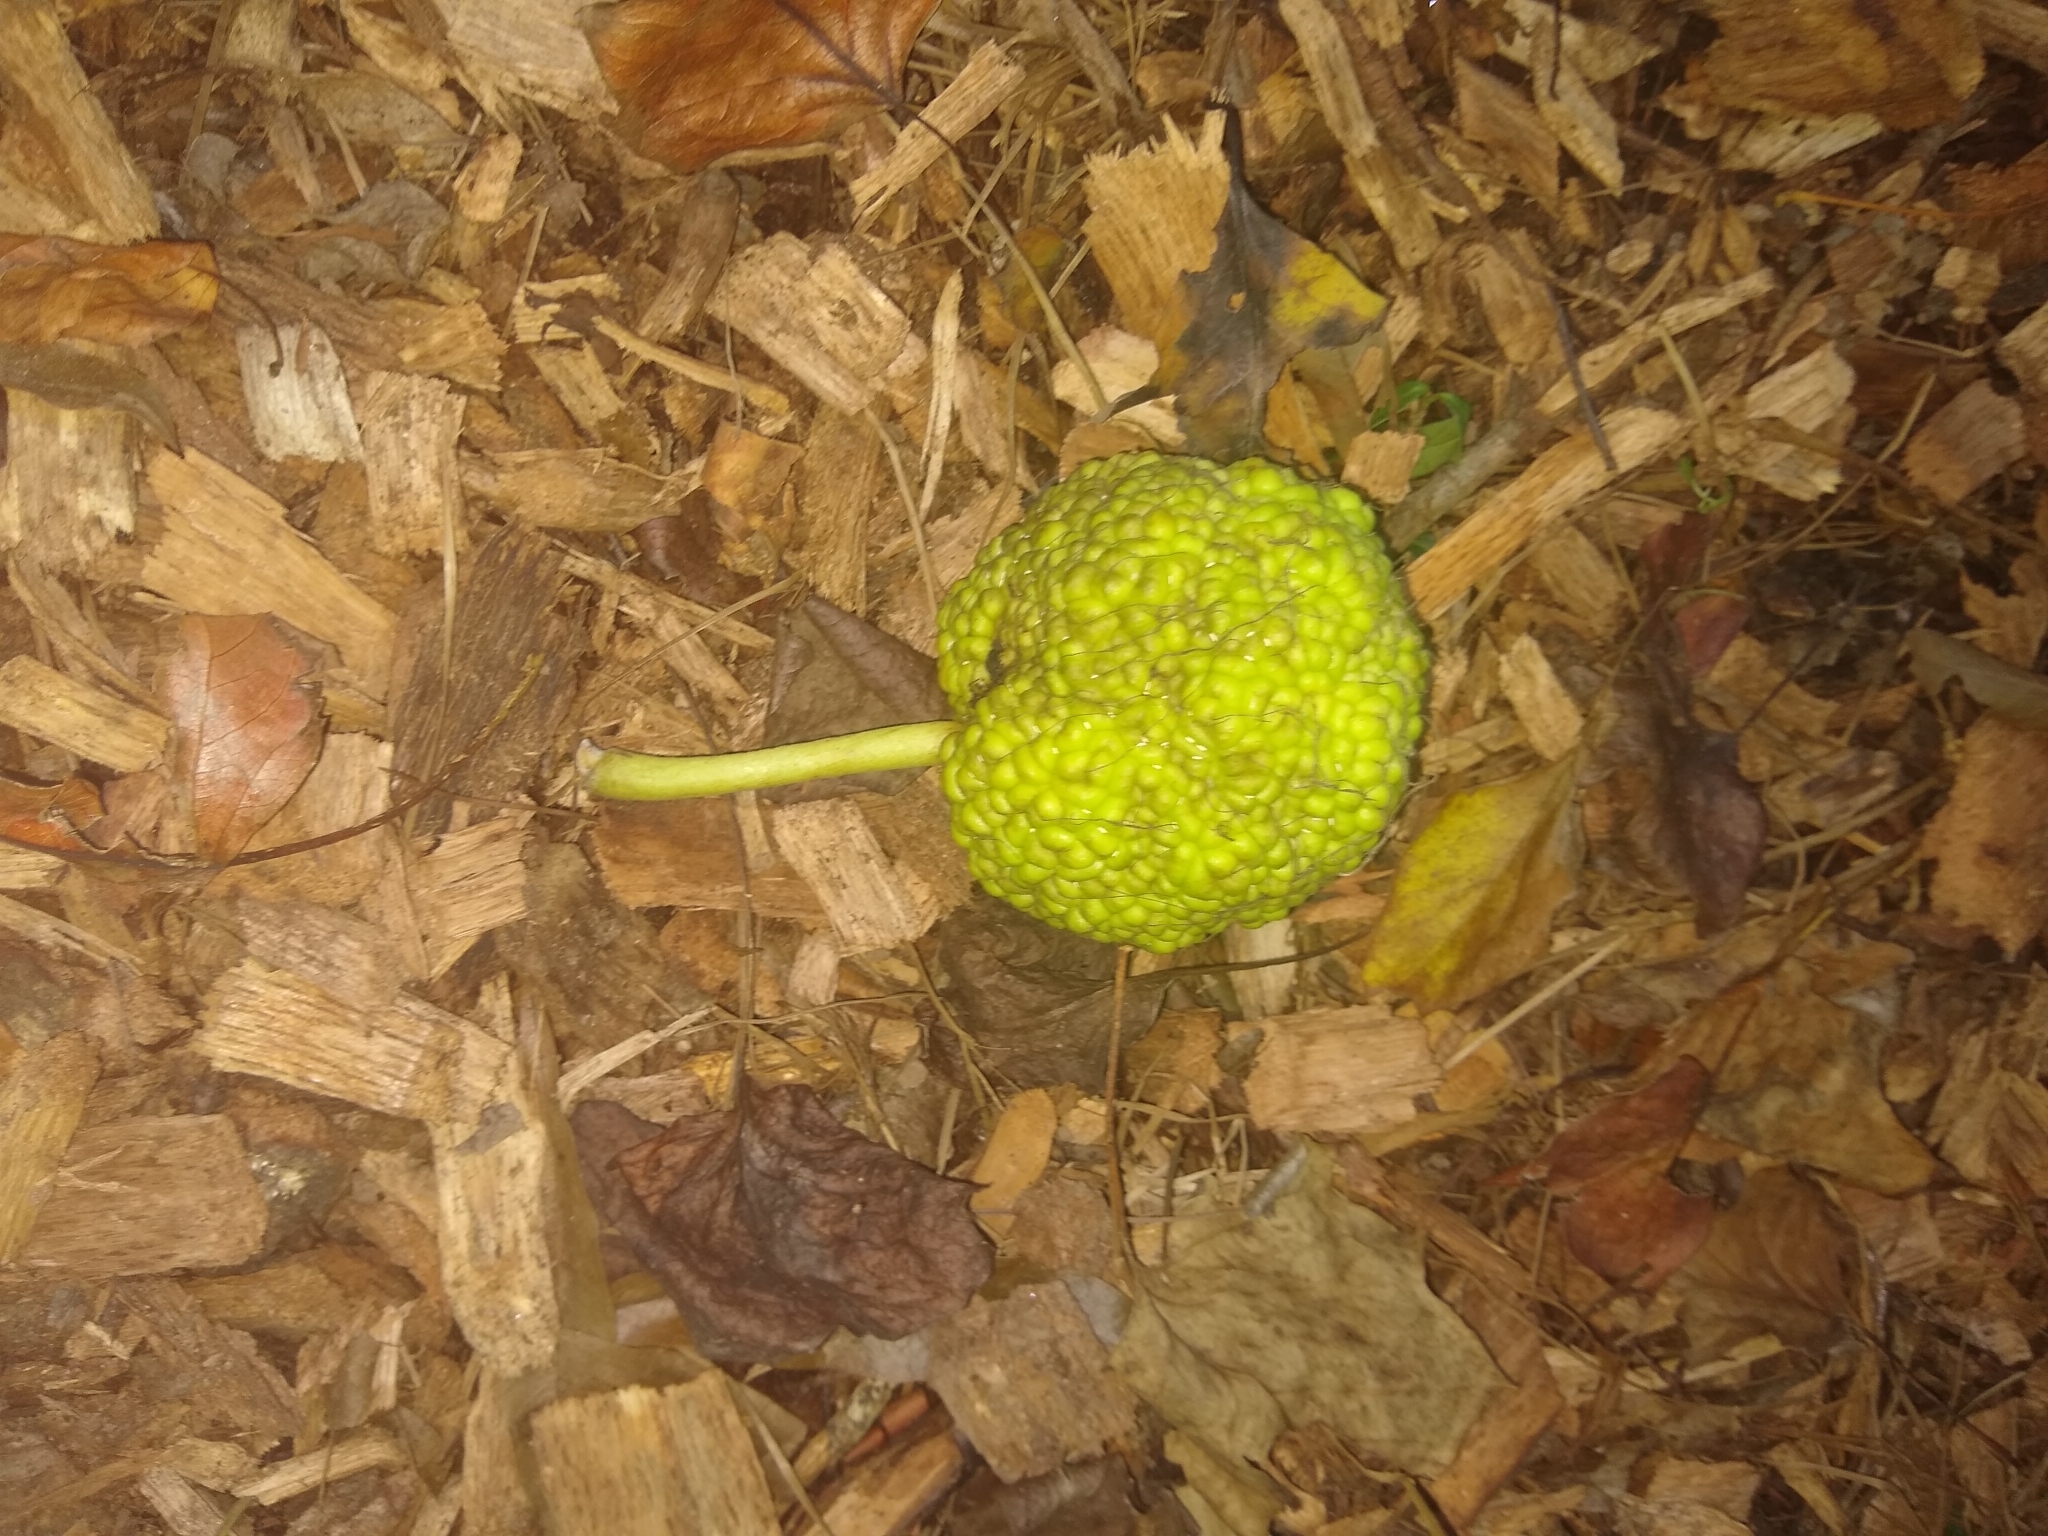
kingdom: Plantae
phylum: Tracheophyta
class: Magnoliopsida
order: Rosales
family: Moraceae
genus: Maclura
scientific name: Maclura pomifera
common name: Osage-orange
